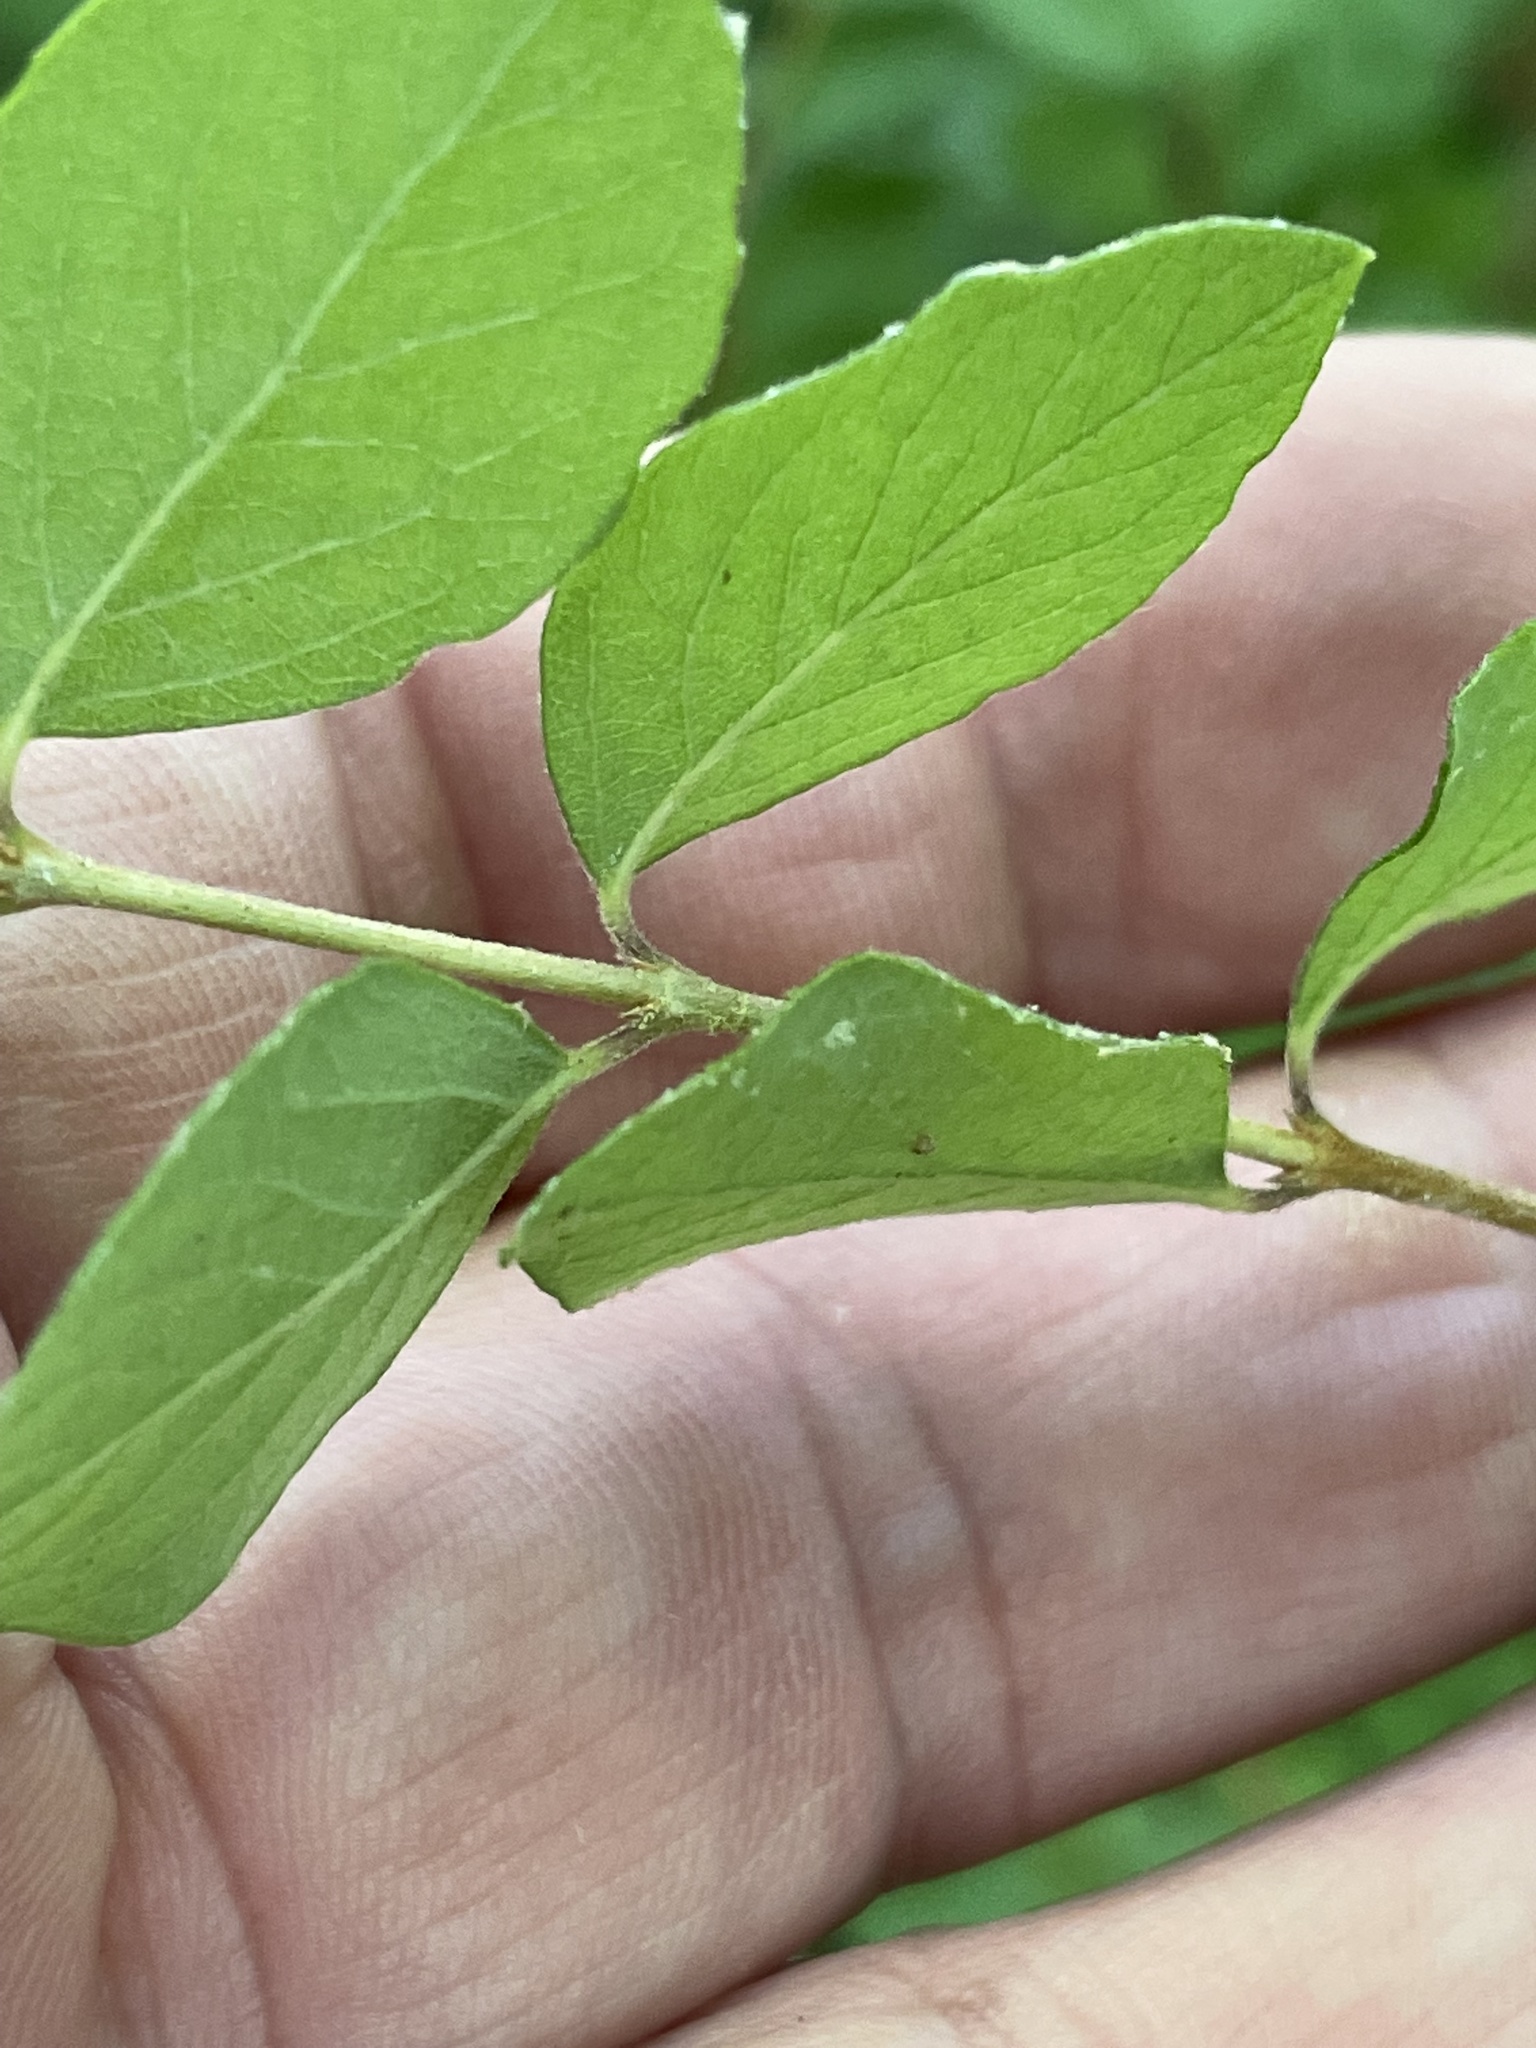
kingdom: Plantae
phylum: Tracheophyta
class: Magnoliopsida
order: Dipsacales
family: Caprifoliaceae
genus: Symphoricarpos
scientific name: Symphoricarpos orbiculatus
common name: Coralberry
